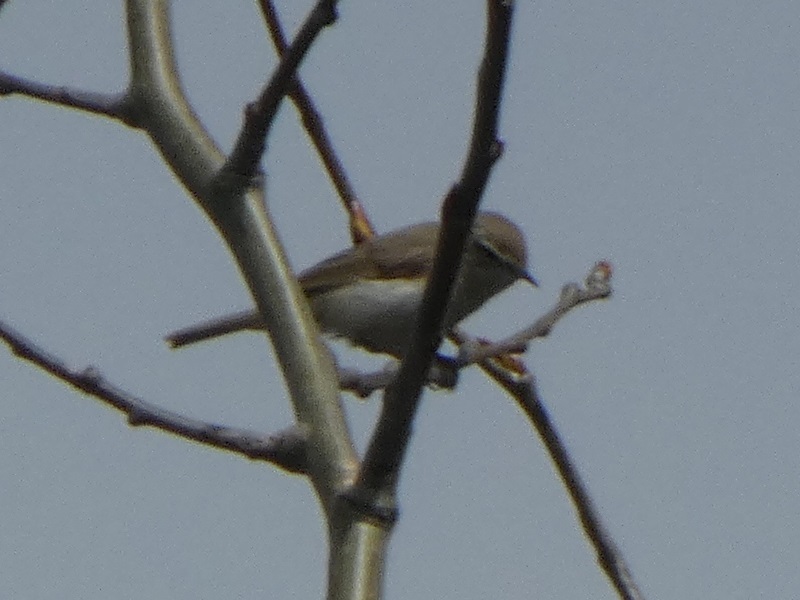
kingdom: Animalia
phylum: Chordata
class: Aves
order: Passeriformes
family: Phylloscopidae
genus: Phylloscopus
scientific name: Phylloscopus collybita
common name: Common chiffchaff
